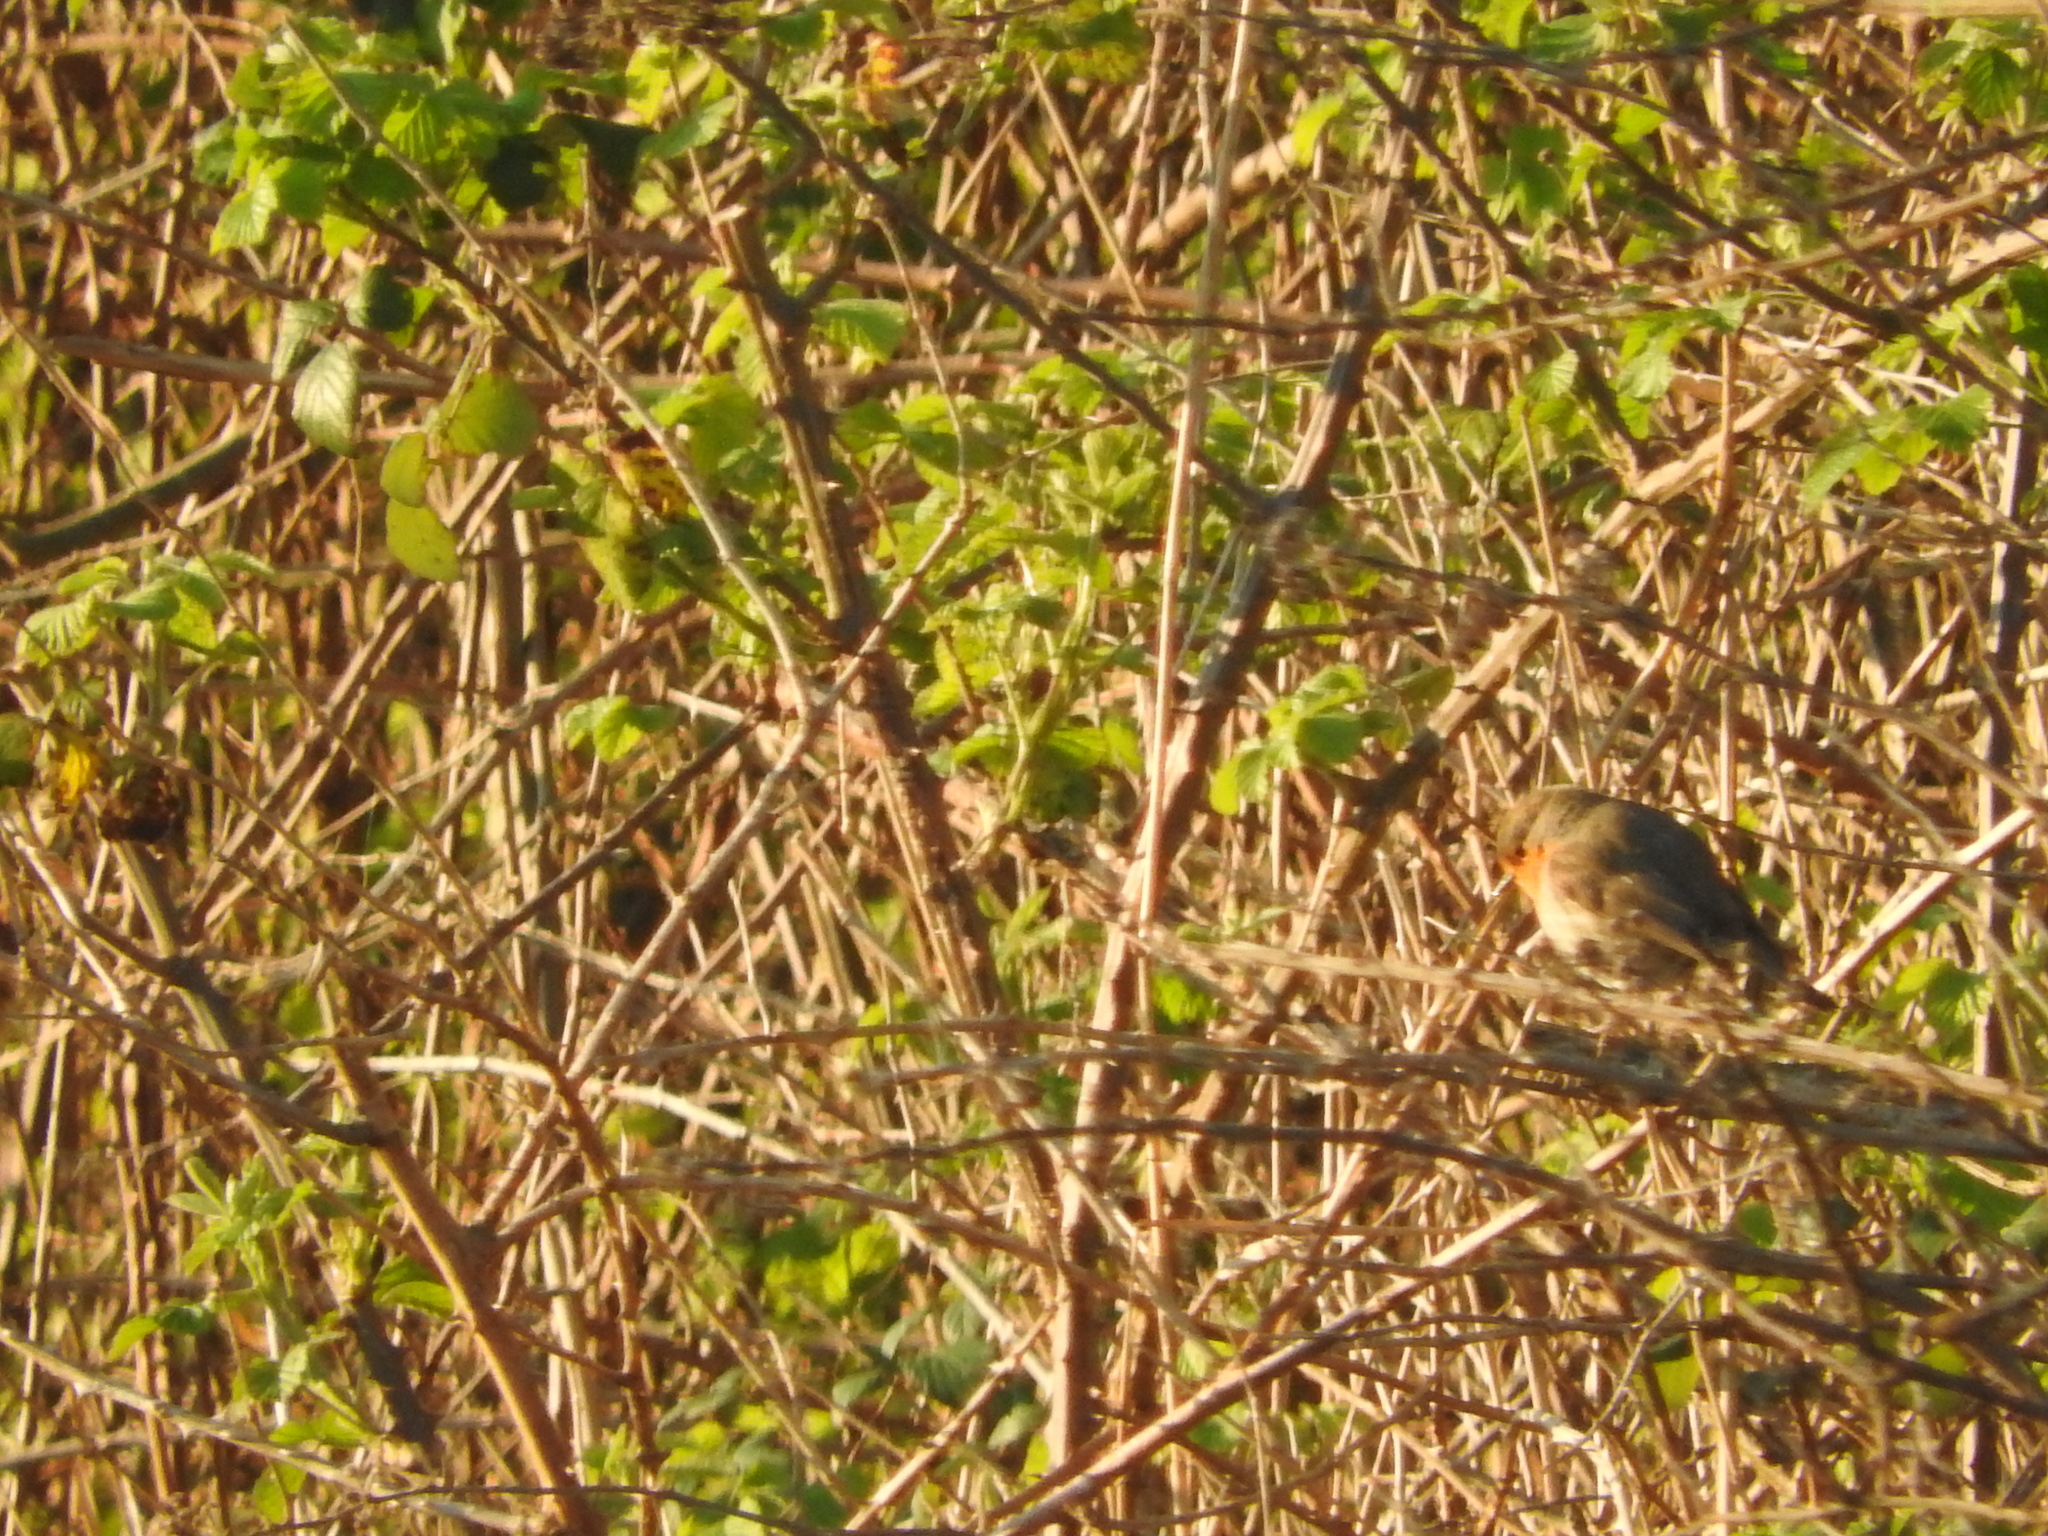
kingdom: Animalia
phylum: Chordata
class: Aves
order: Passeriformes
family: Muscicapidae
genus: Erithacus
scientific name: Erithacus rubecula
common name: European robin
